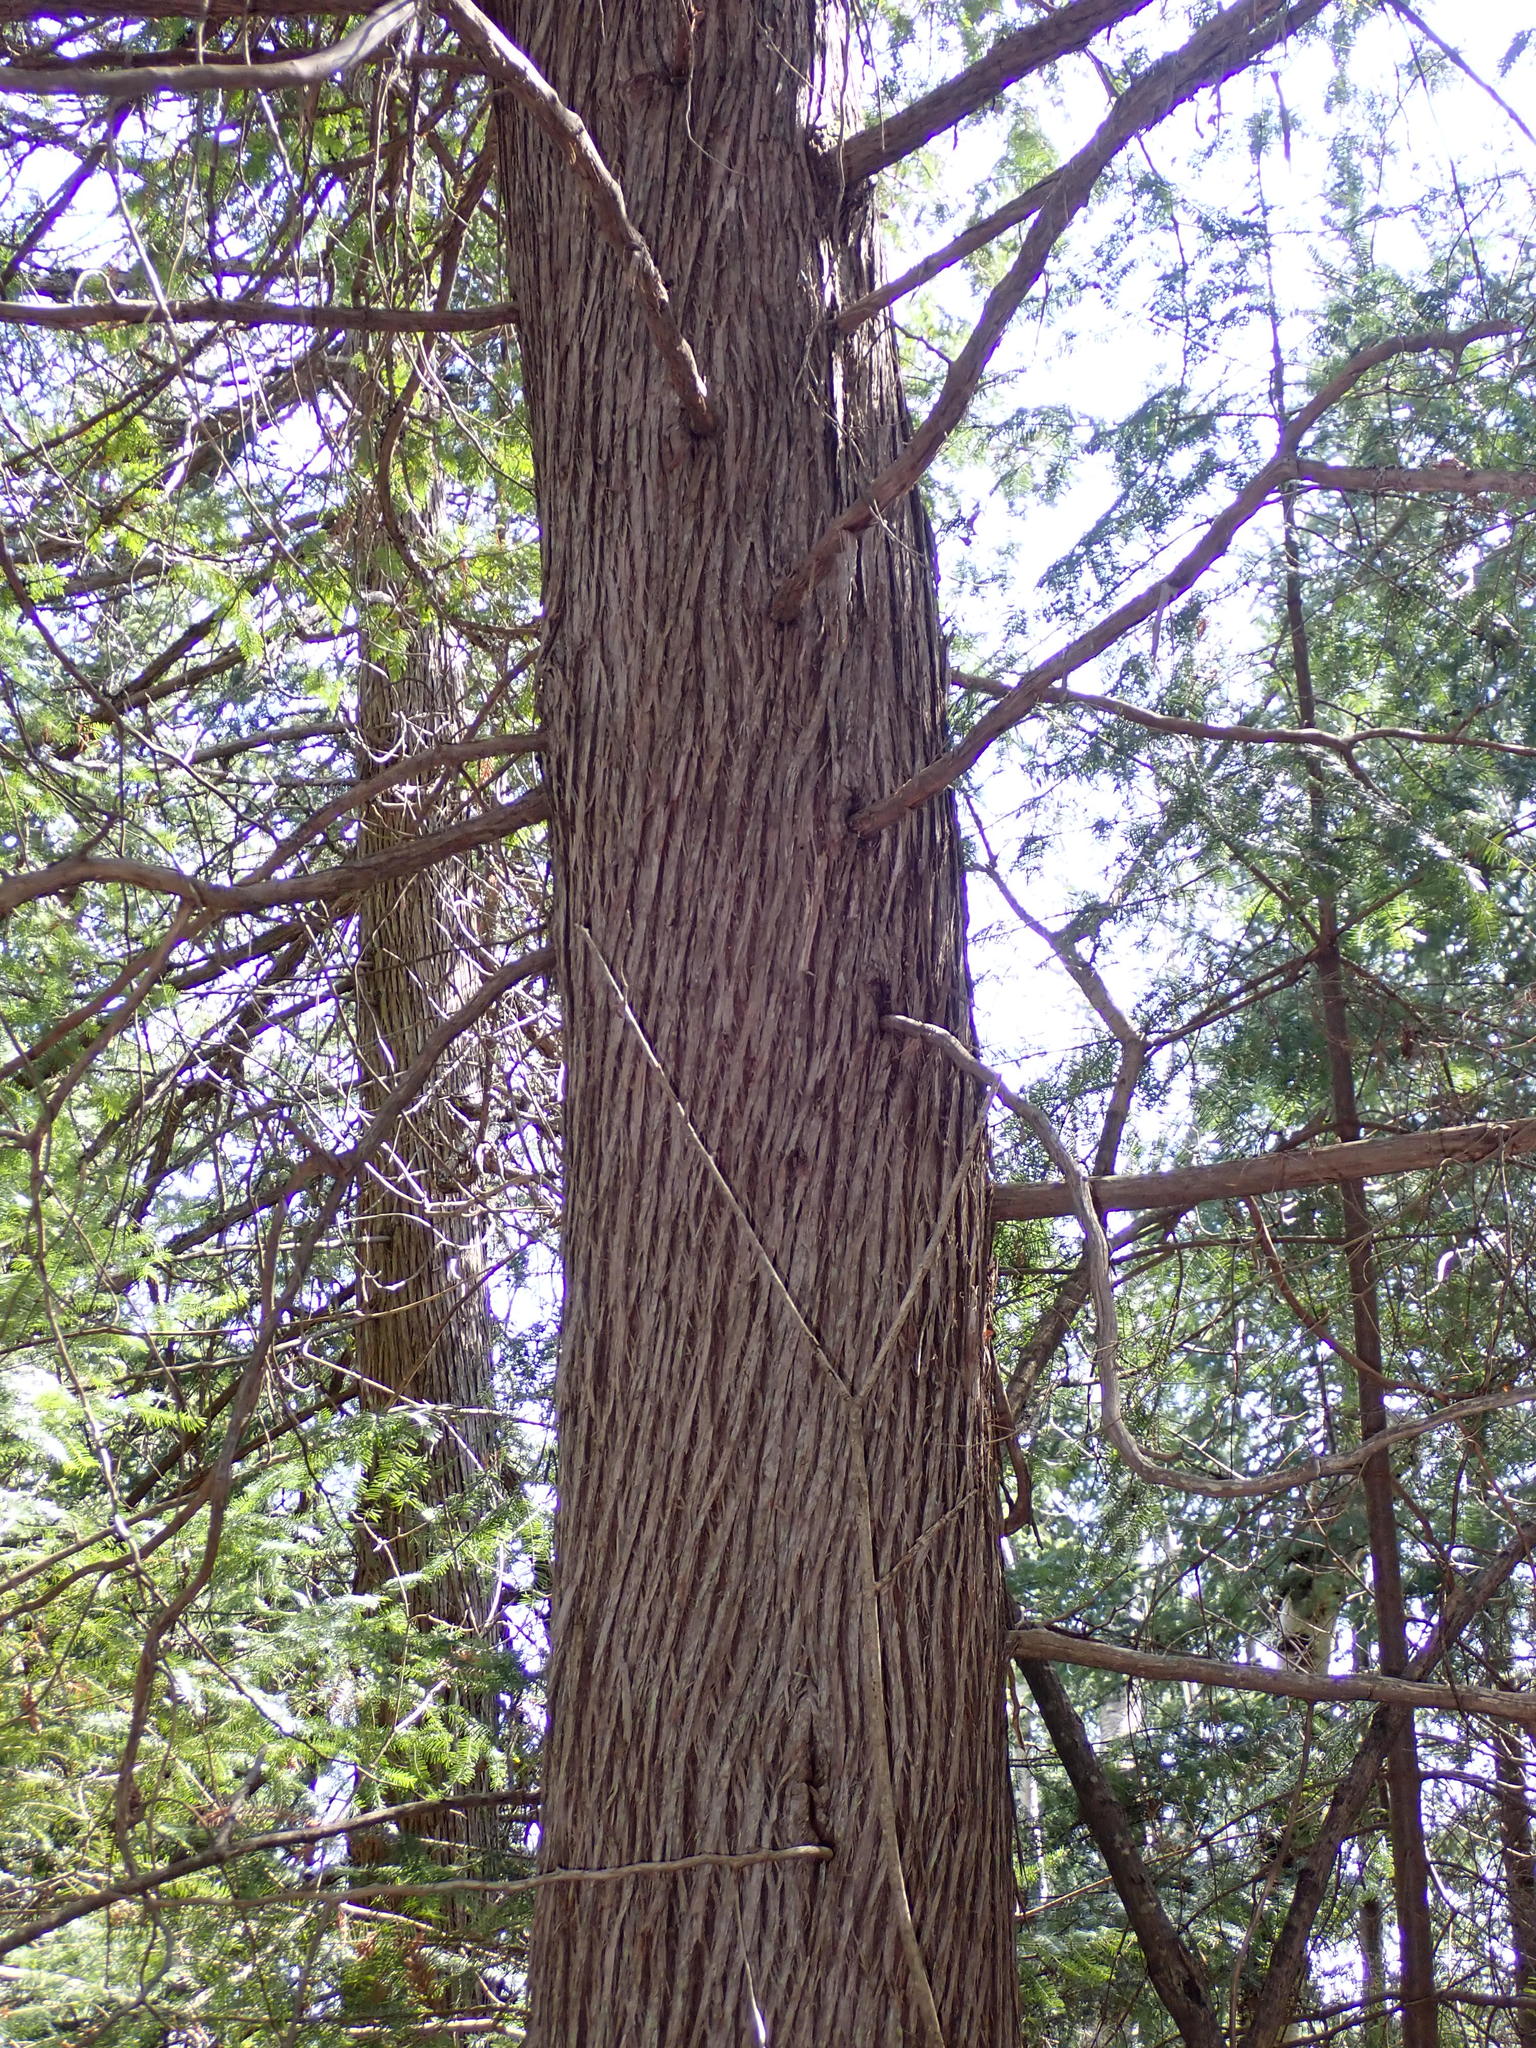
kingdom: Plantae
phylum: Tracheophyta
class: Pinopsida
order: Pinales
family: Cupressaceae
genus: Thuja
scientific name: Thuja occidentalis
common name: Northern white-cedar
